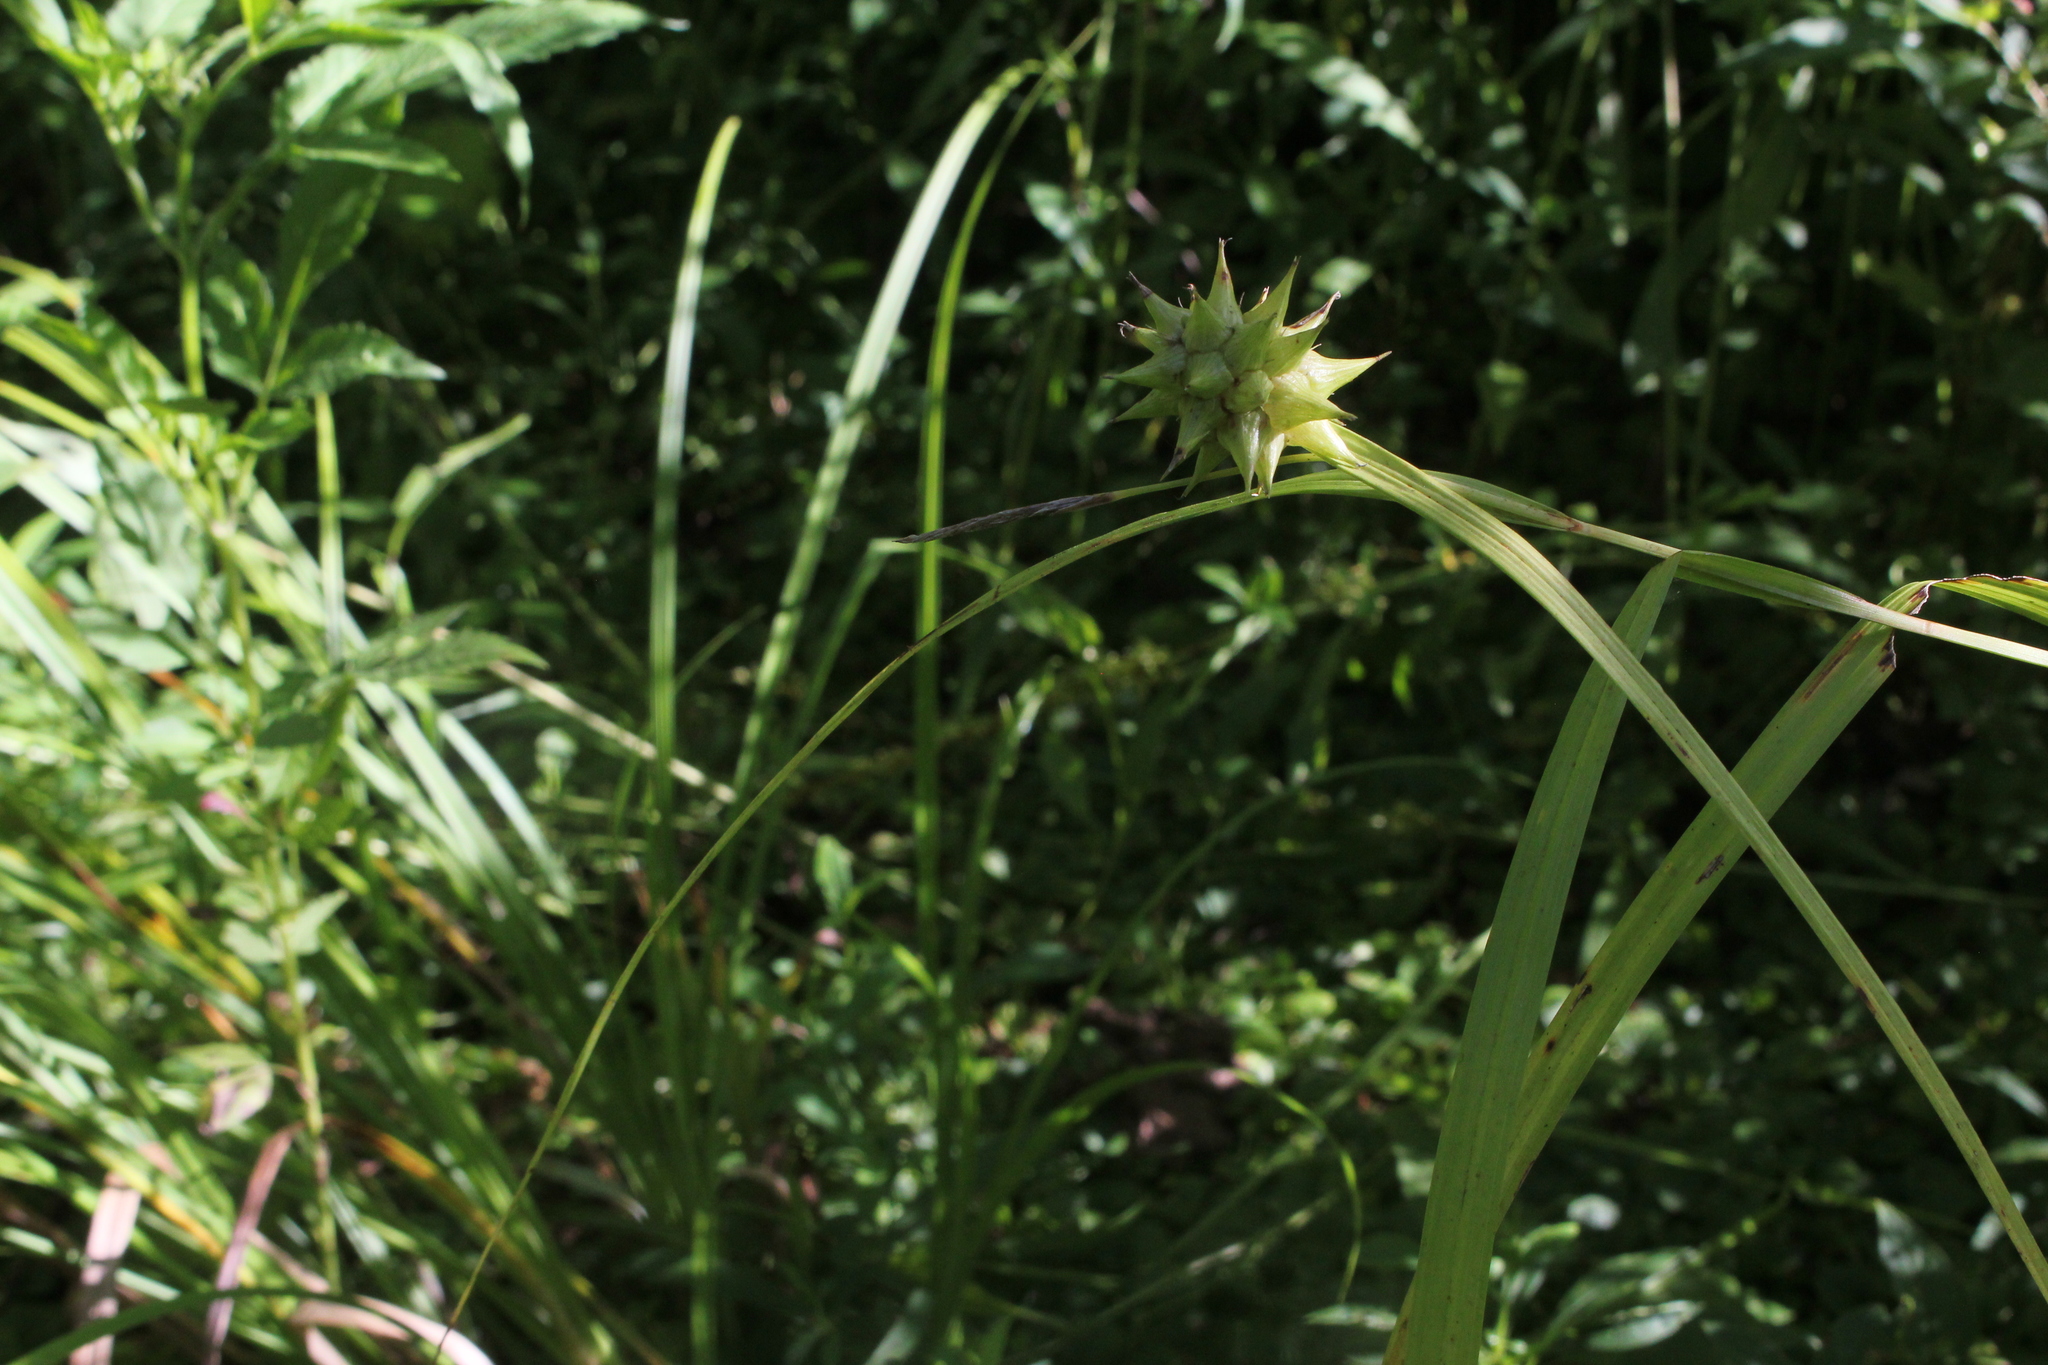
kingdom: Plantae
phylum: Tracheophyta
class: Liliopsida
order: Poales
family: Cyperaceae
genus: Carex
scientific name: Carex grayi
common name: Asa gray's sedge
